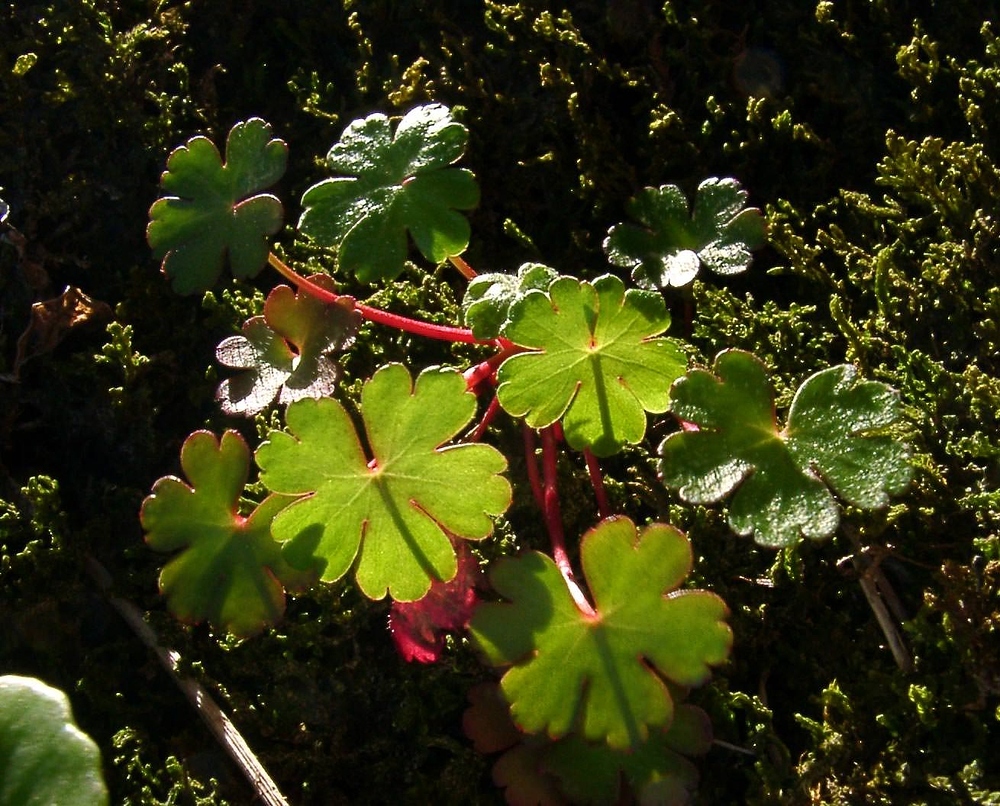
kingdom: Plantae
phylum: Tracheophyta
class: Magnoliopsida
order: Geraniales
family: Geraniaceae
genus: Geranium
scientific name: Geranium lucidum
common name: Shining crane's-bill
